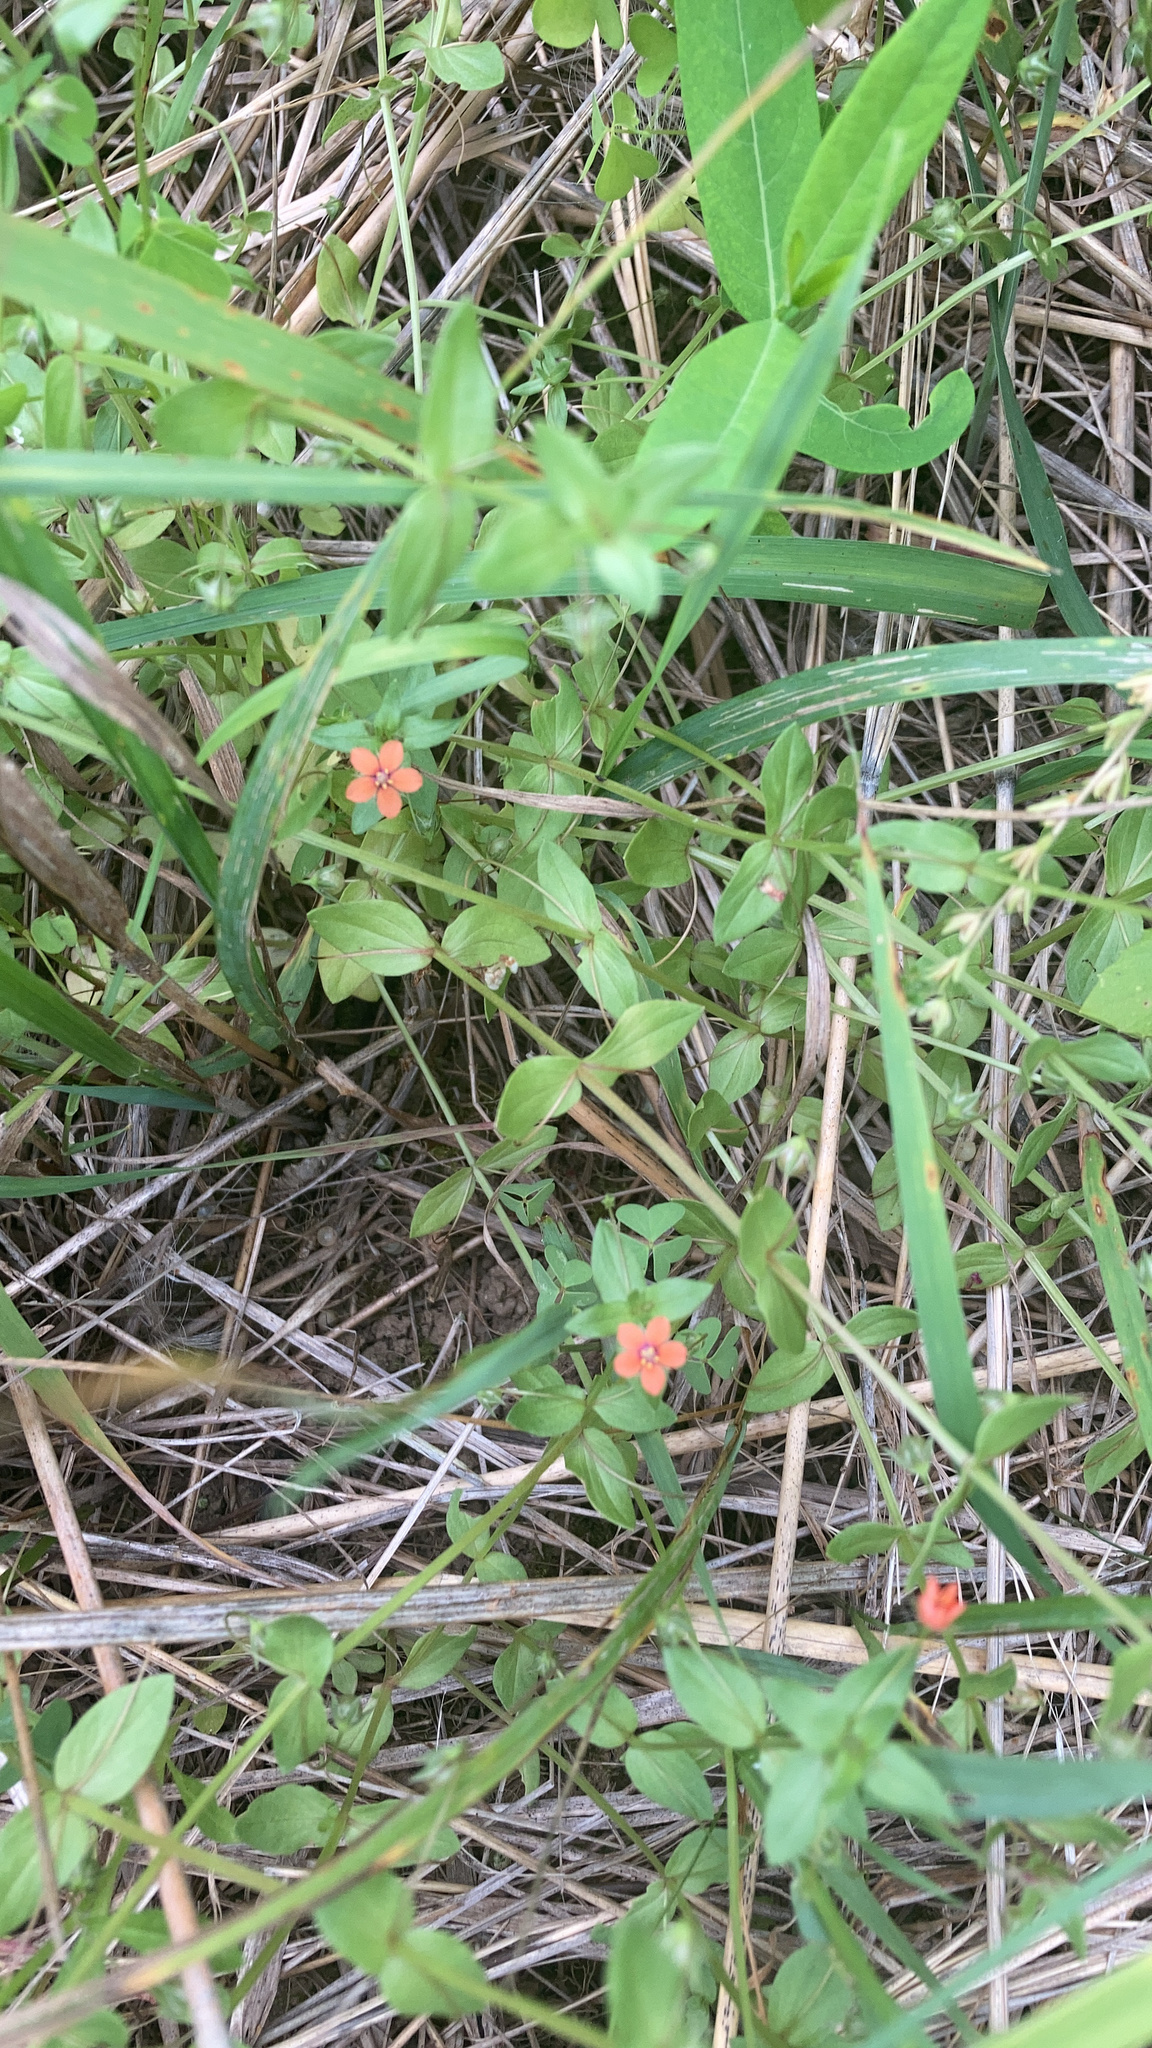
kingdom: Plantae
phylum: Tracheophyta
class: Magnoliopsida
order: Ericales
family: Primulaceae
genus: Lysimachia
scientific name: Lysimachia arvensis
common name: Scarlet pimpernel
